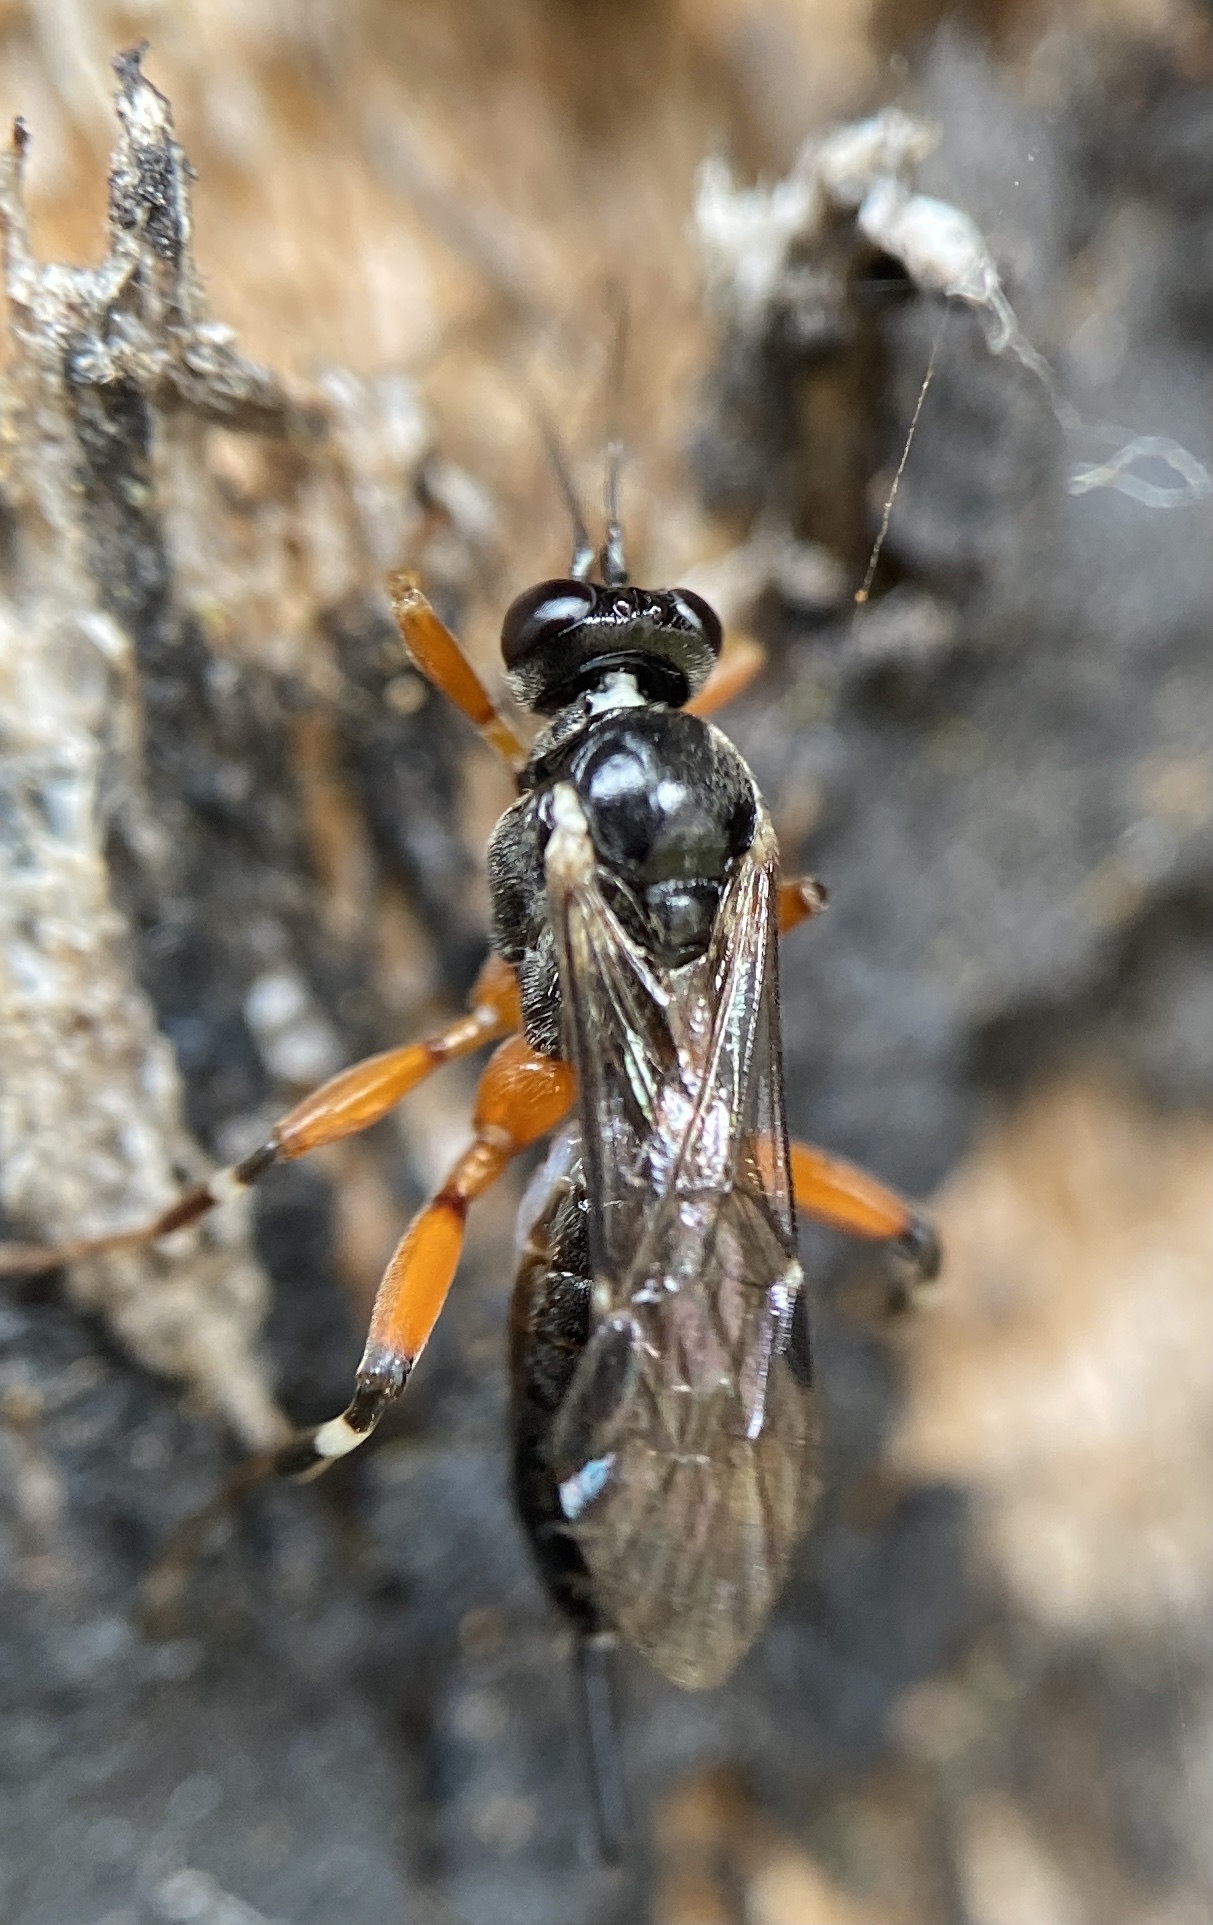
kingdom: Animalia
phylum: Arthropoda
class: Insecta
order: Hymenoptera
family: Ichneumonidae
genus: Pimpla
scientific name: Pimpla
